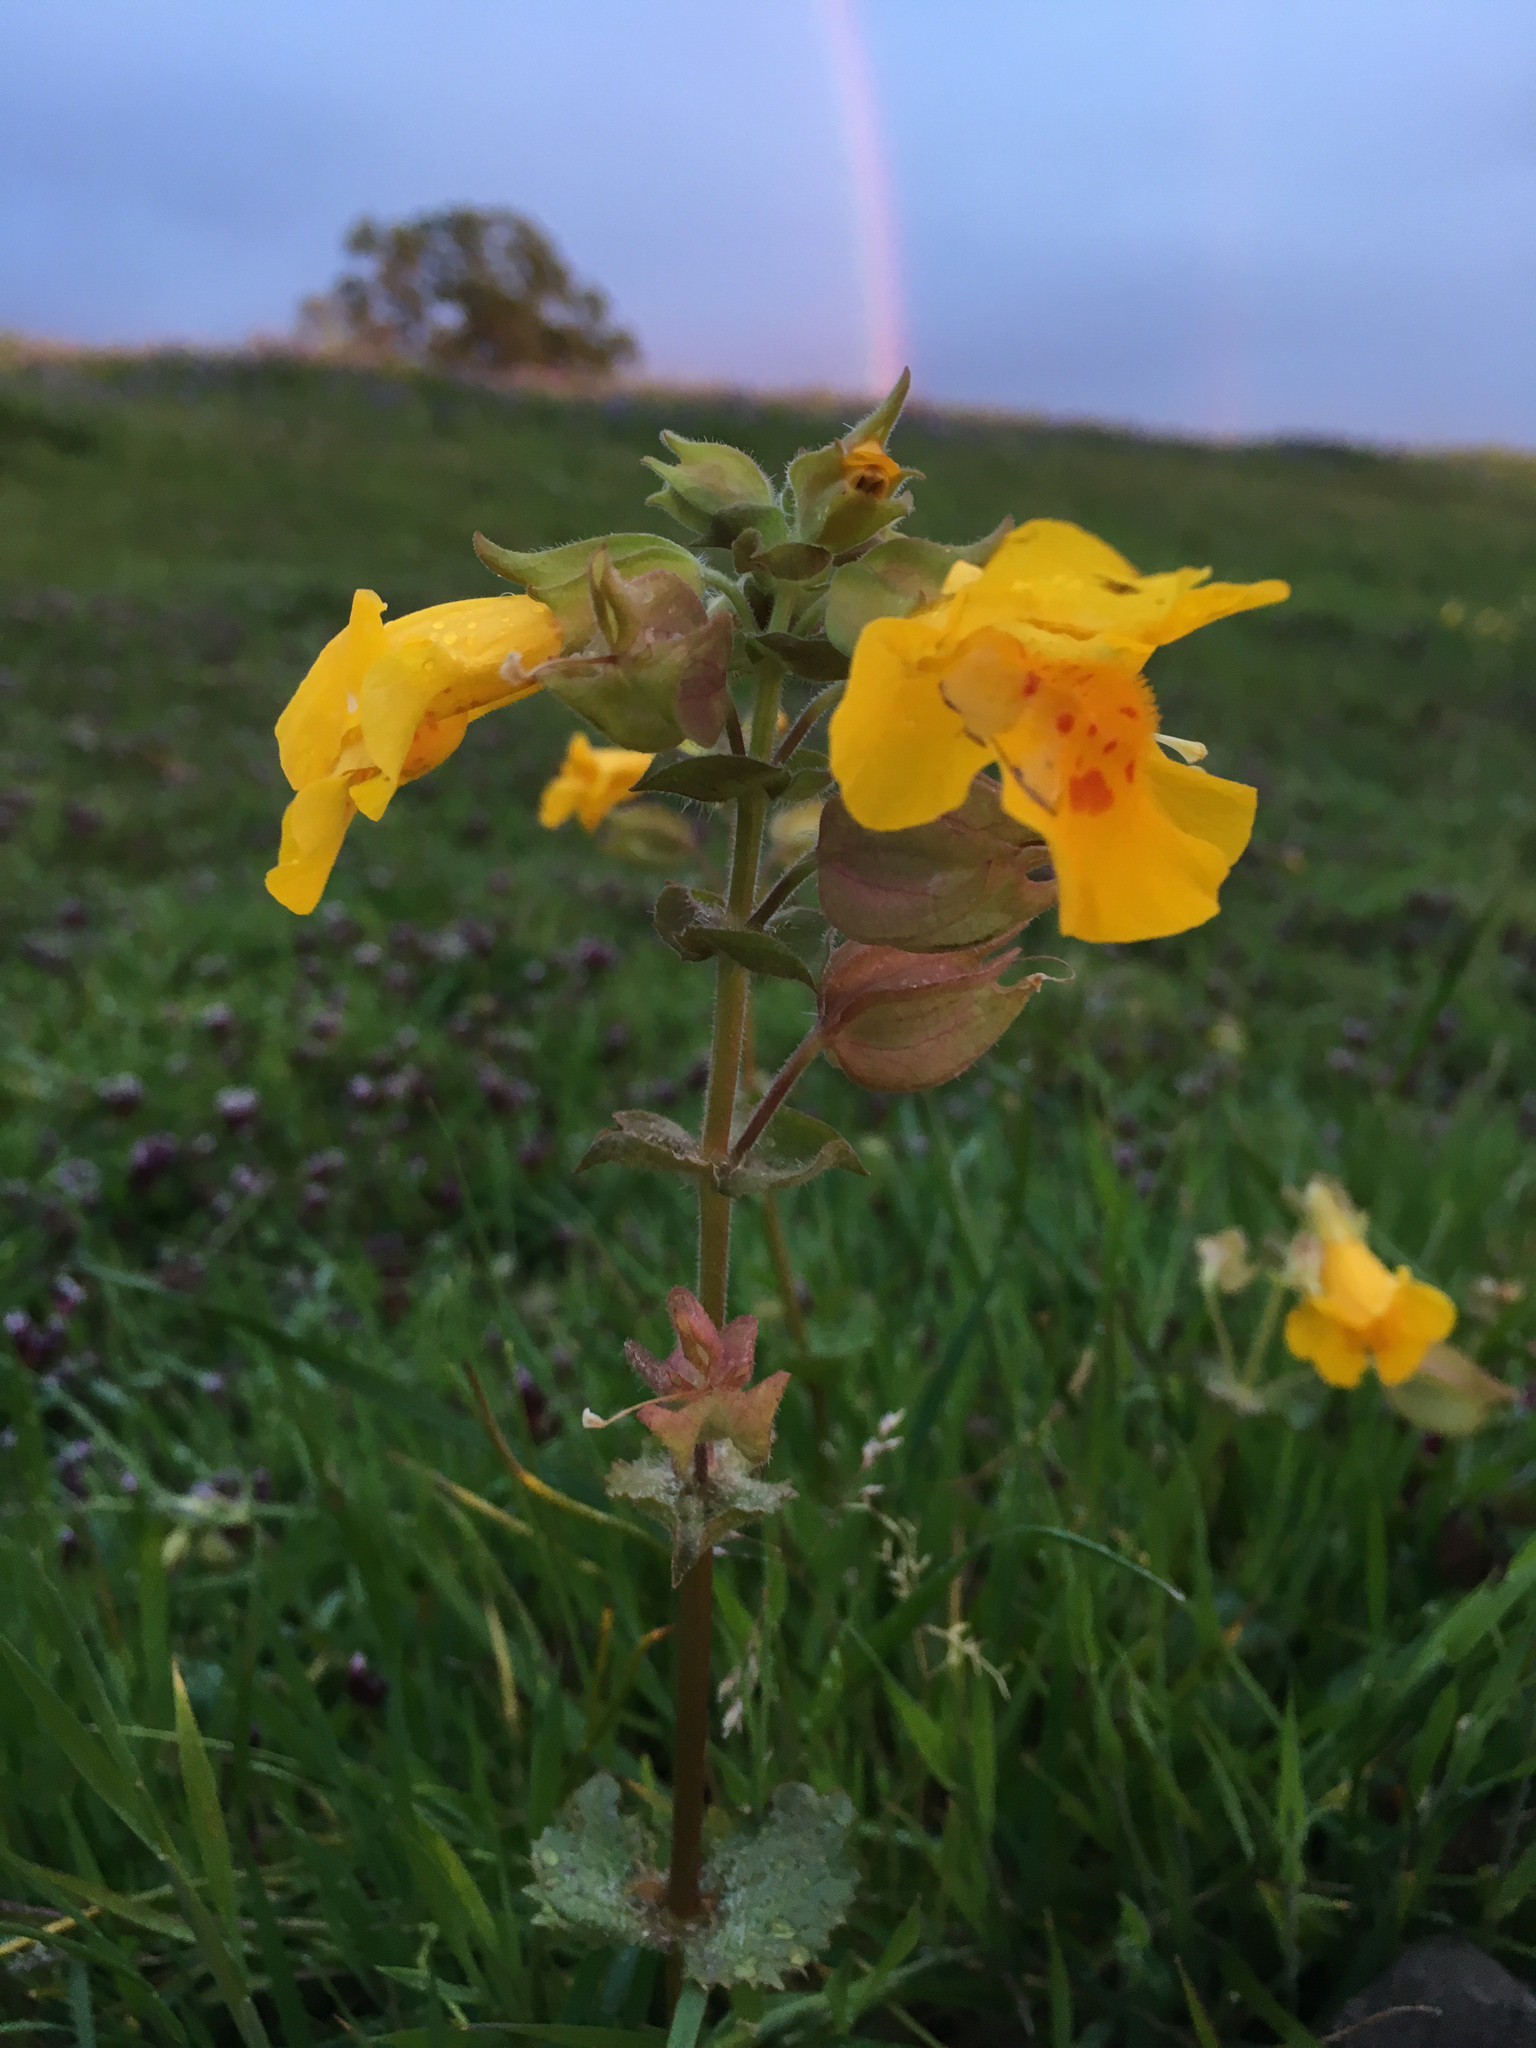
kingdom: Plantae
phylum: Tracheophyta
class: Magnoliopsida
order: Lamiales
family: Phrymaceae
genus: Erythranthe
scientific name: Erythranthe guttata
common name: Monkeyflower
